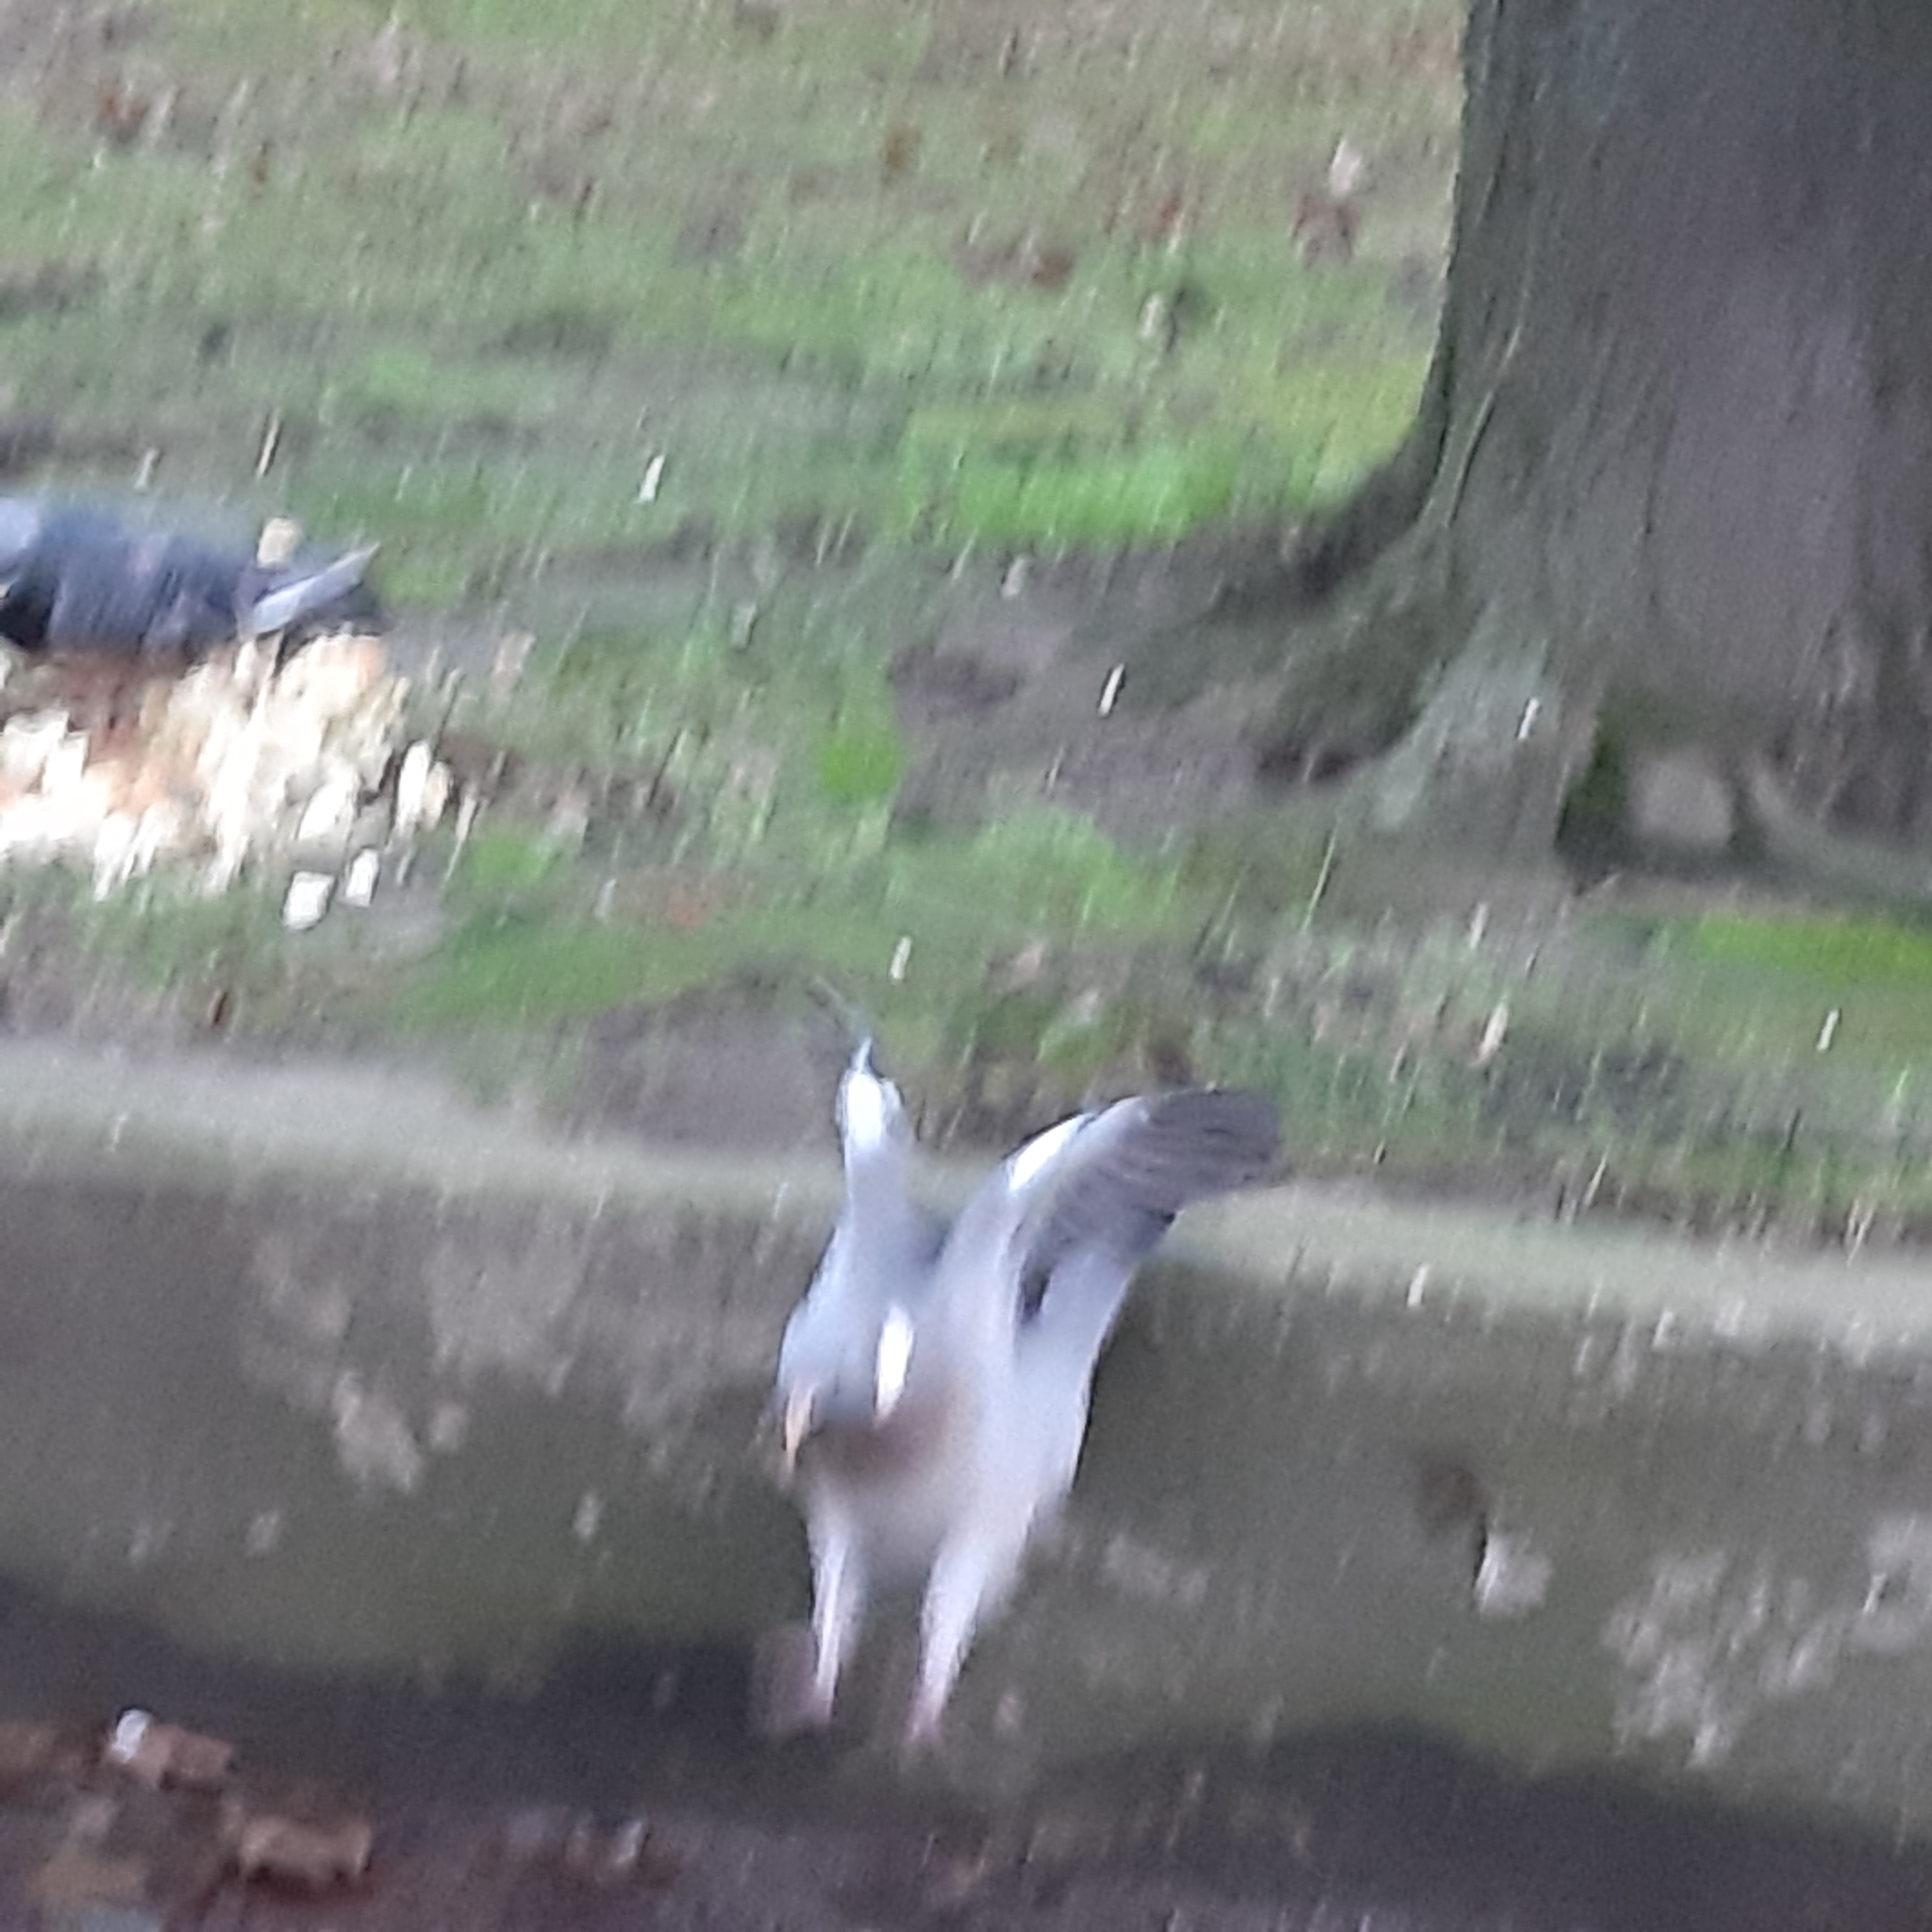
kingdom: Animalia
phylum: Chordata
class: Aves
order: Columbiformes
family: Columbidae
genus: Columba
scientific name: Columba palumbus
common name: Common wood pigeon
